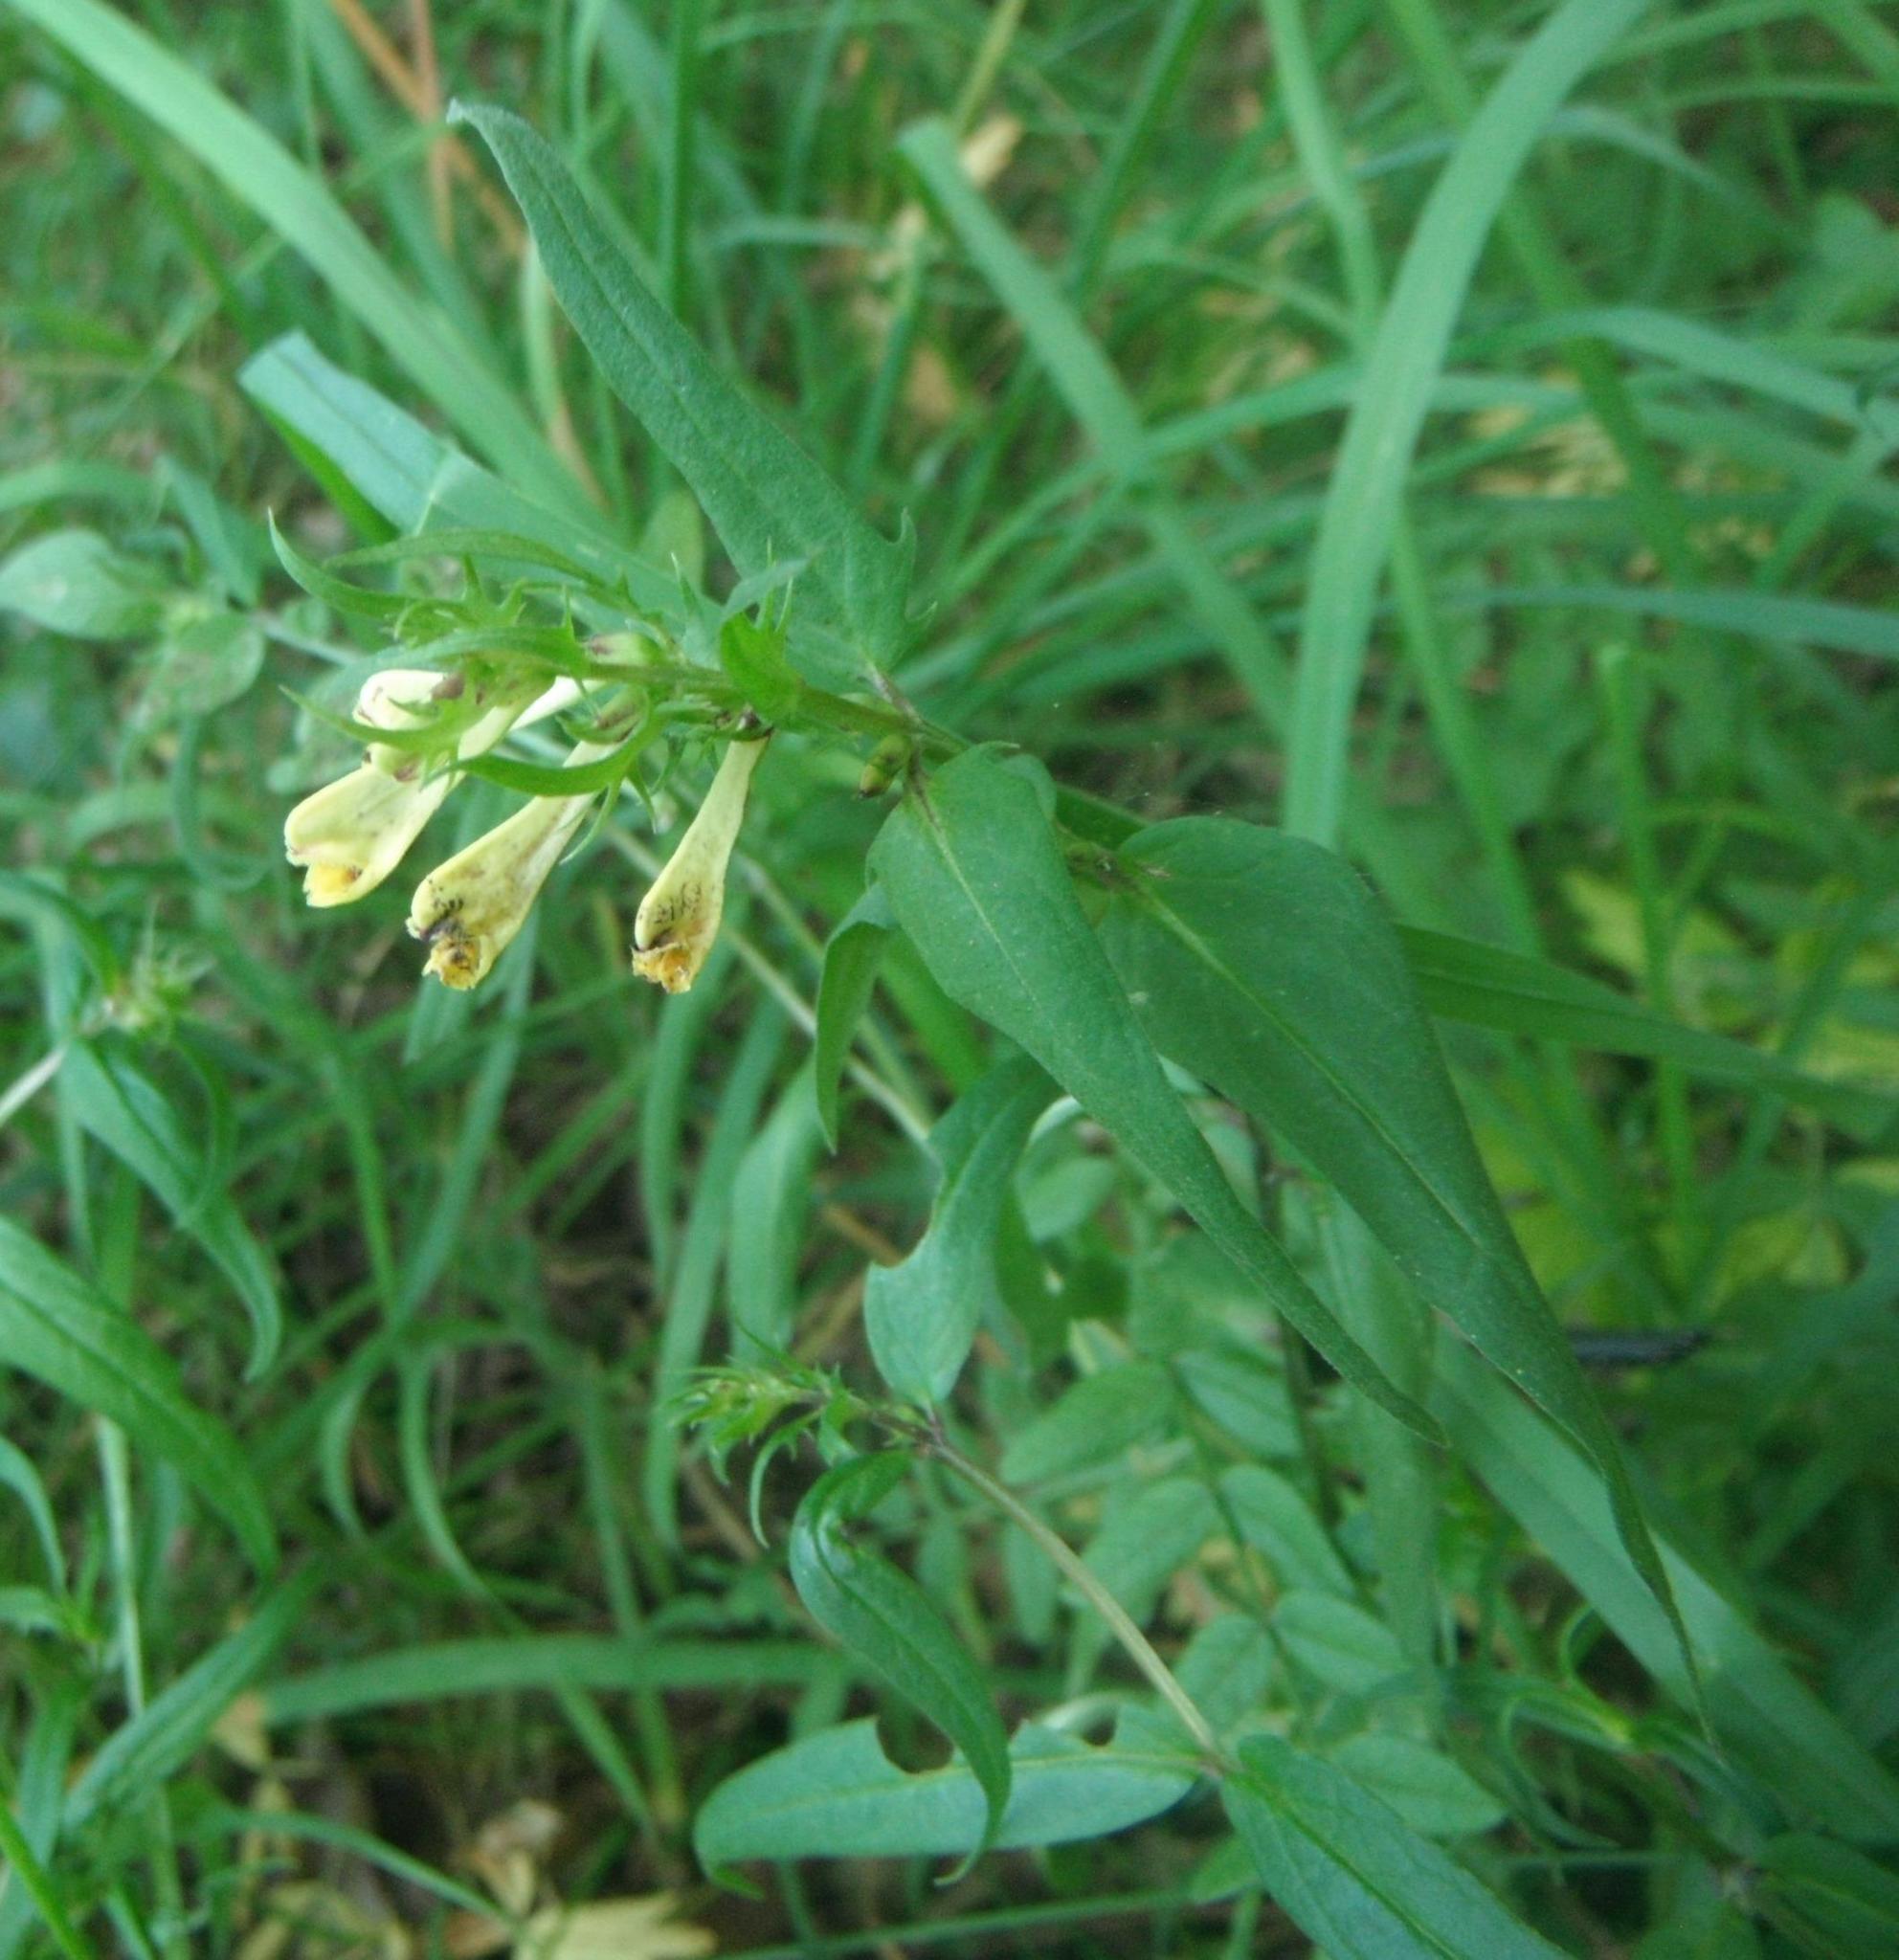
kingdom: Plantae
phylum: Tracheophyta
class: Magnoliopsida
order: Lamiales
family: Orobanchaceae
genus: Melampyrum
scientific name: Melampyrum pratense
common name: Common cow-wheat
